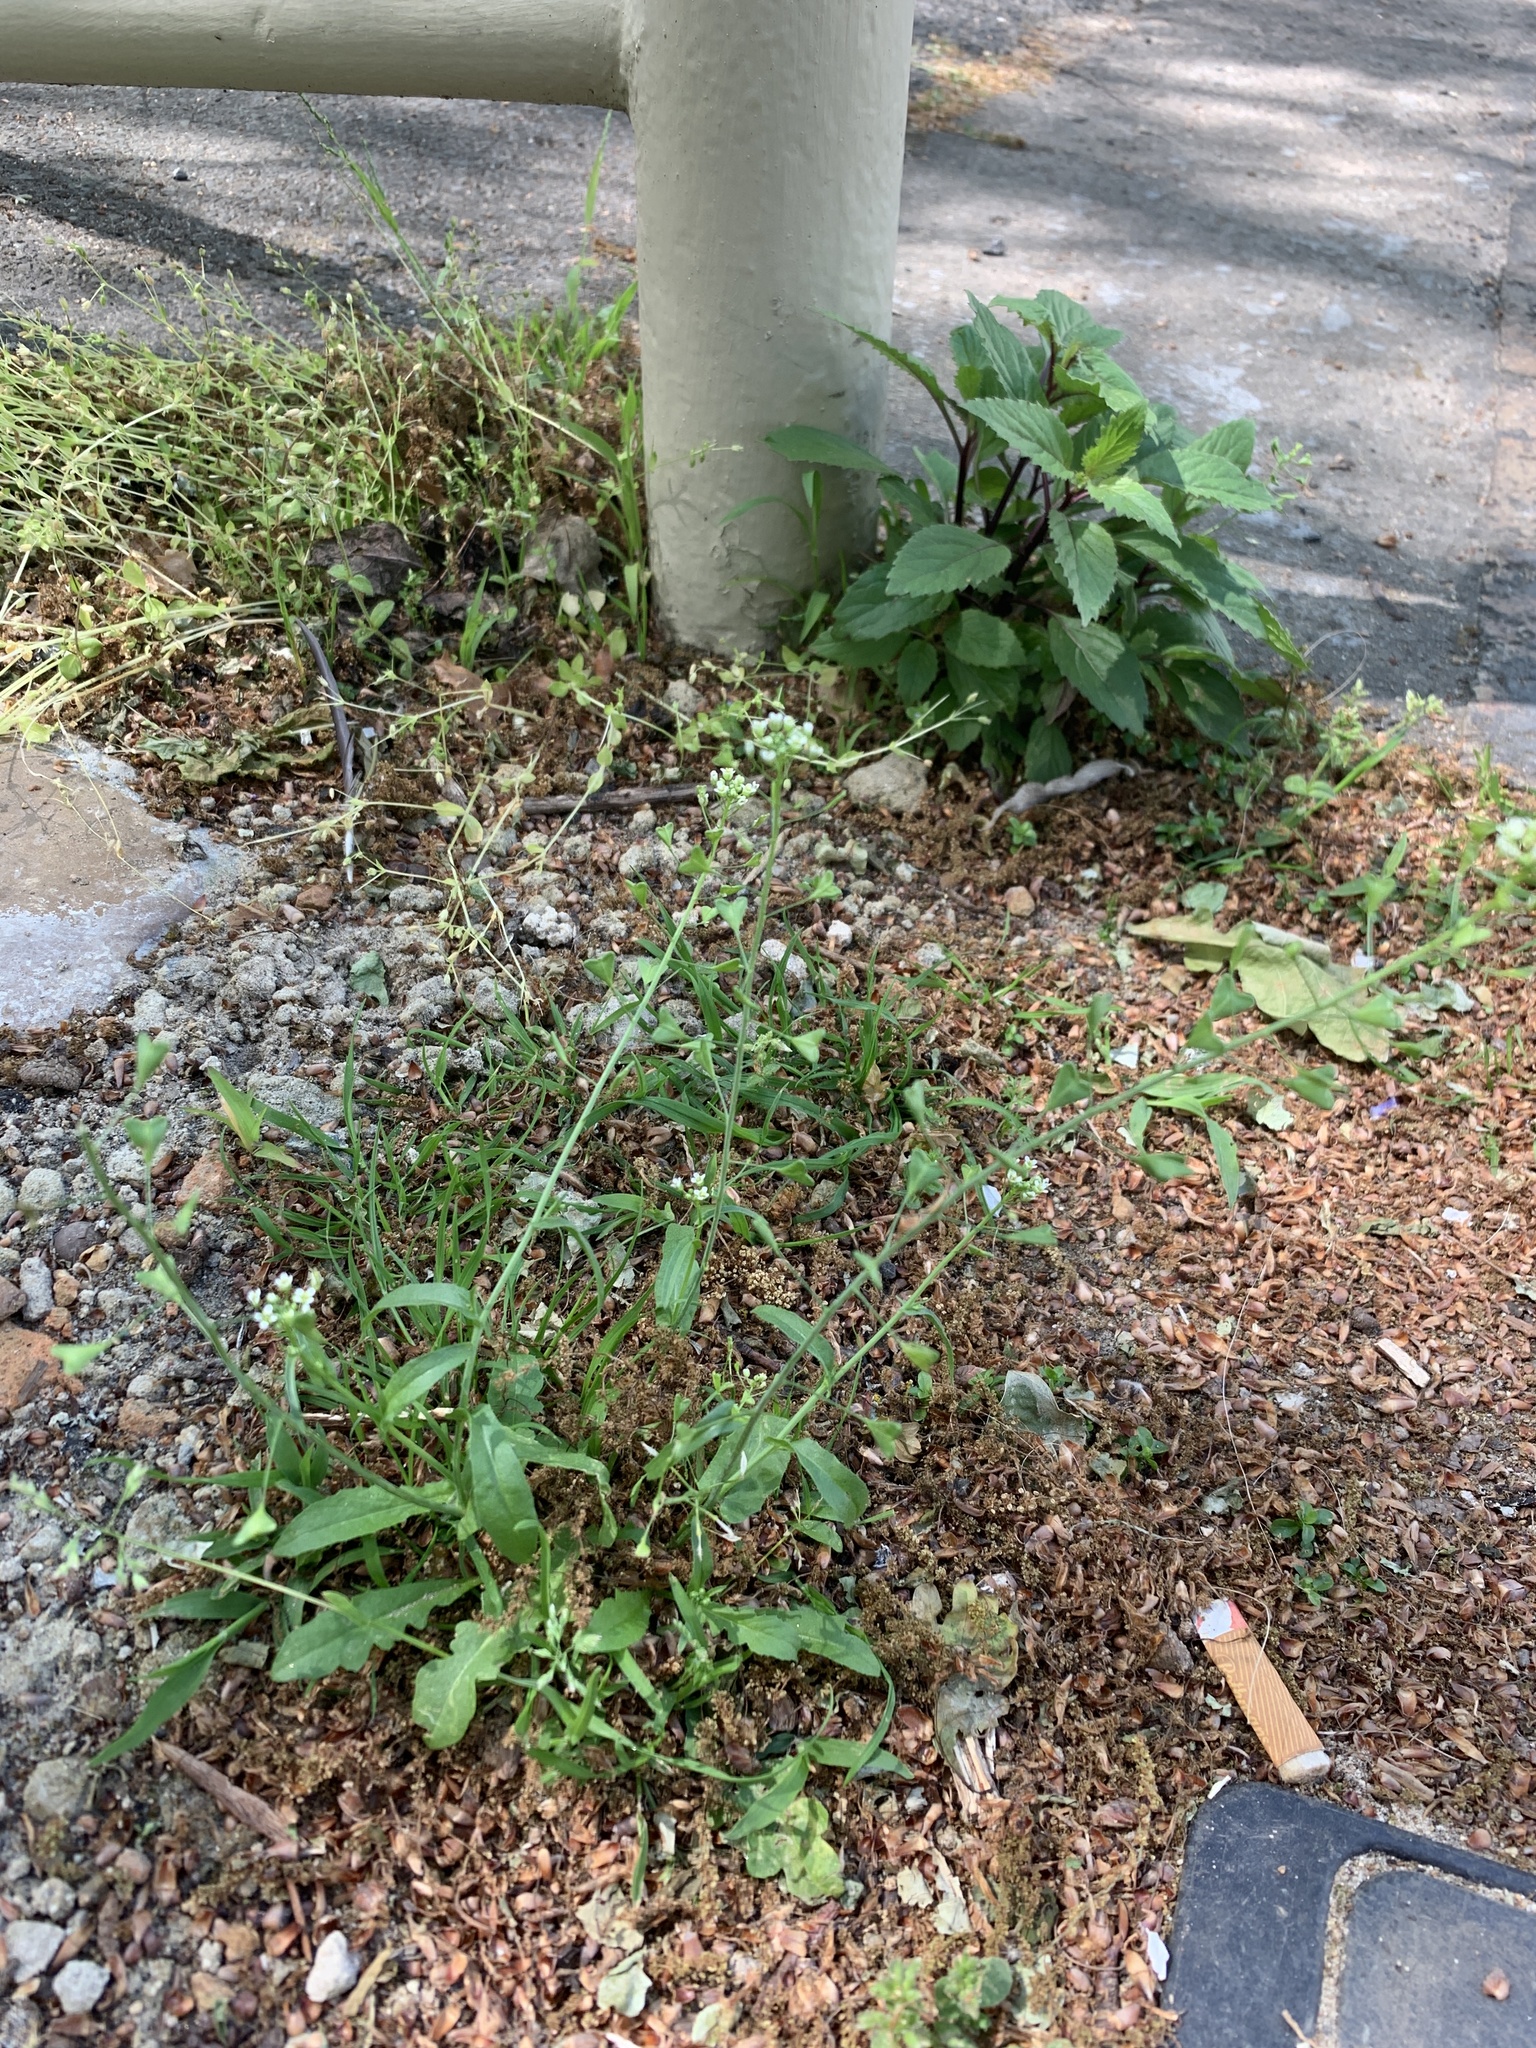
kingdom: Plantae
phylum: Tracheophyta
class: Magnoliopsida
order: Brassicales
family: Brassicaceae
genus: Capsella
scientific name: Capsella bursa-pastoris
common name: Shepherd's purse
